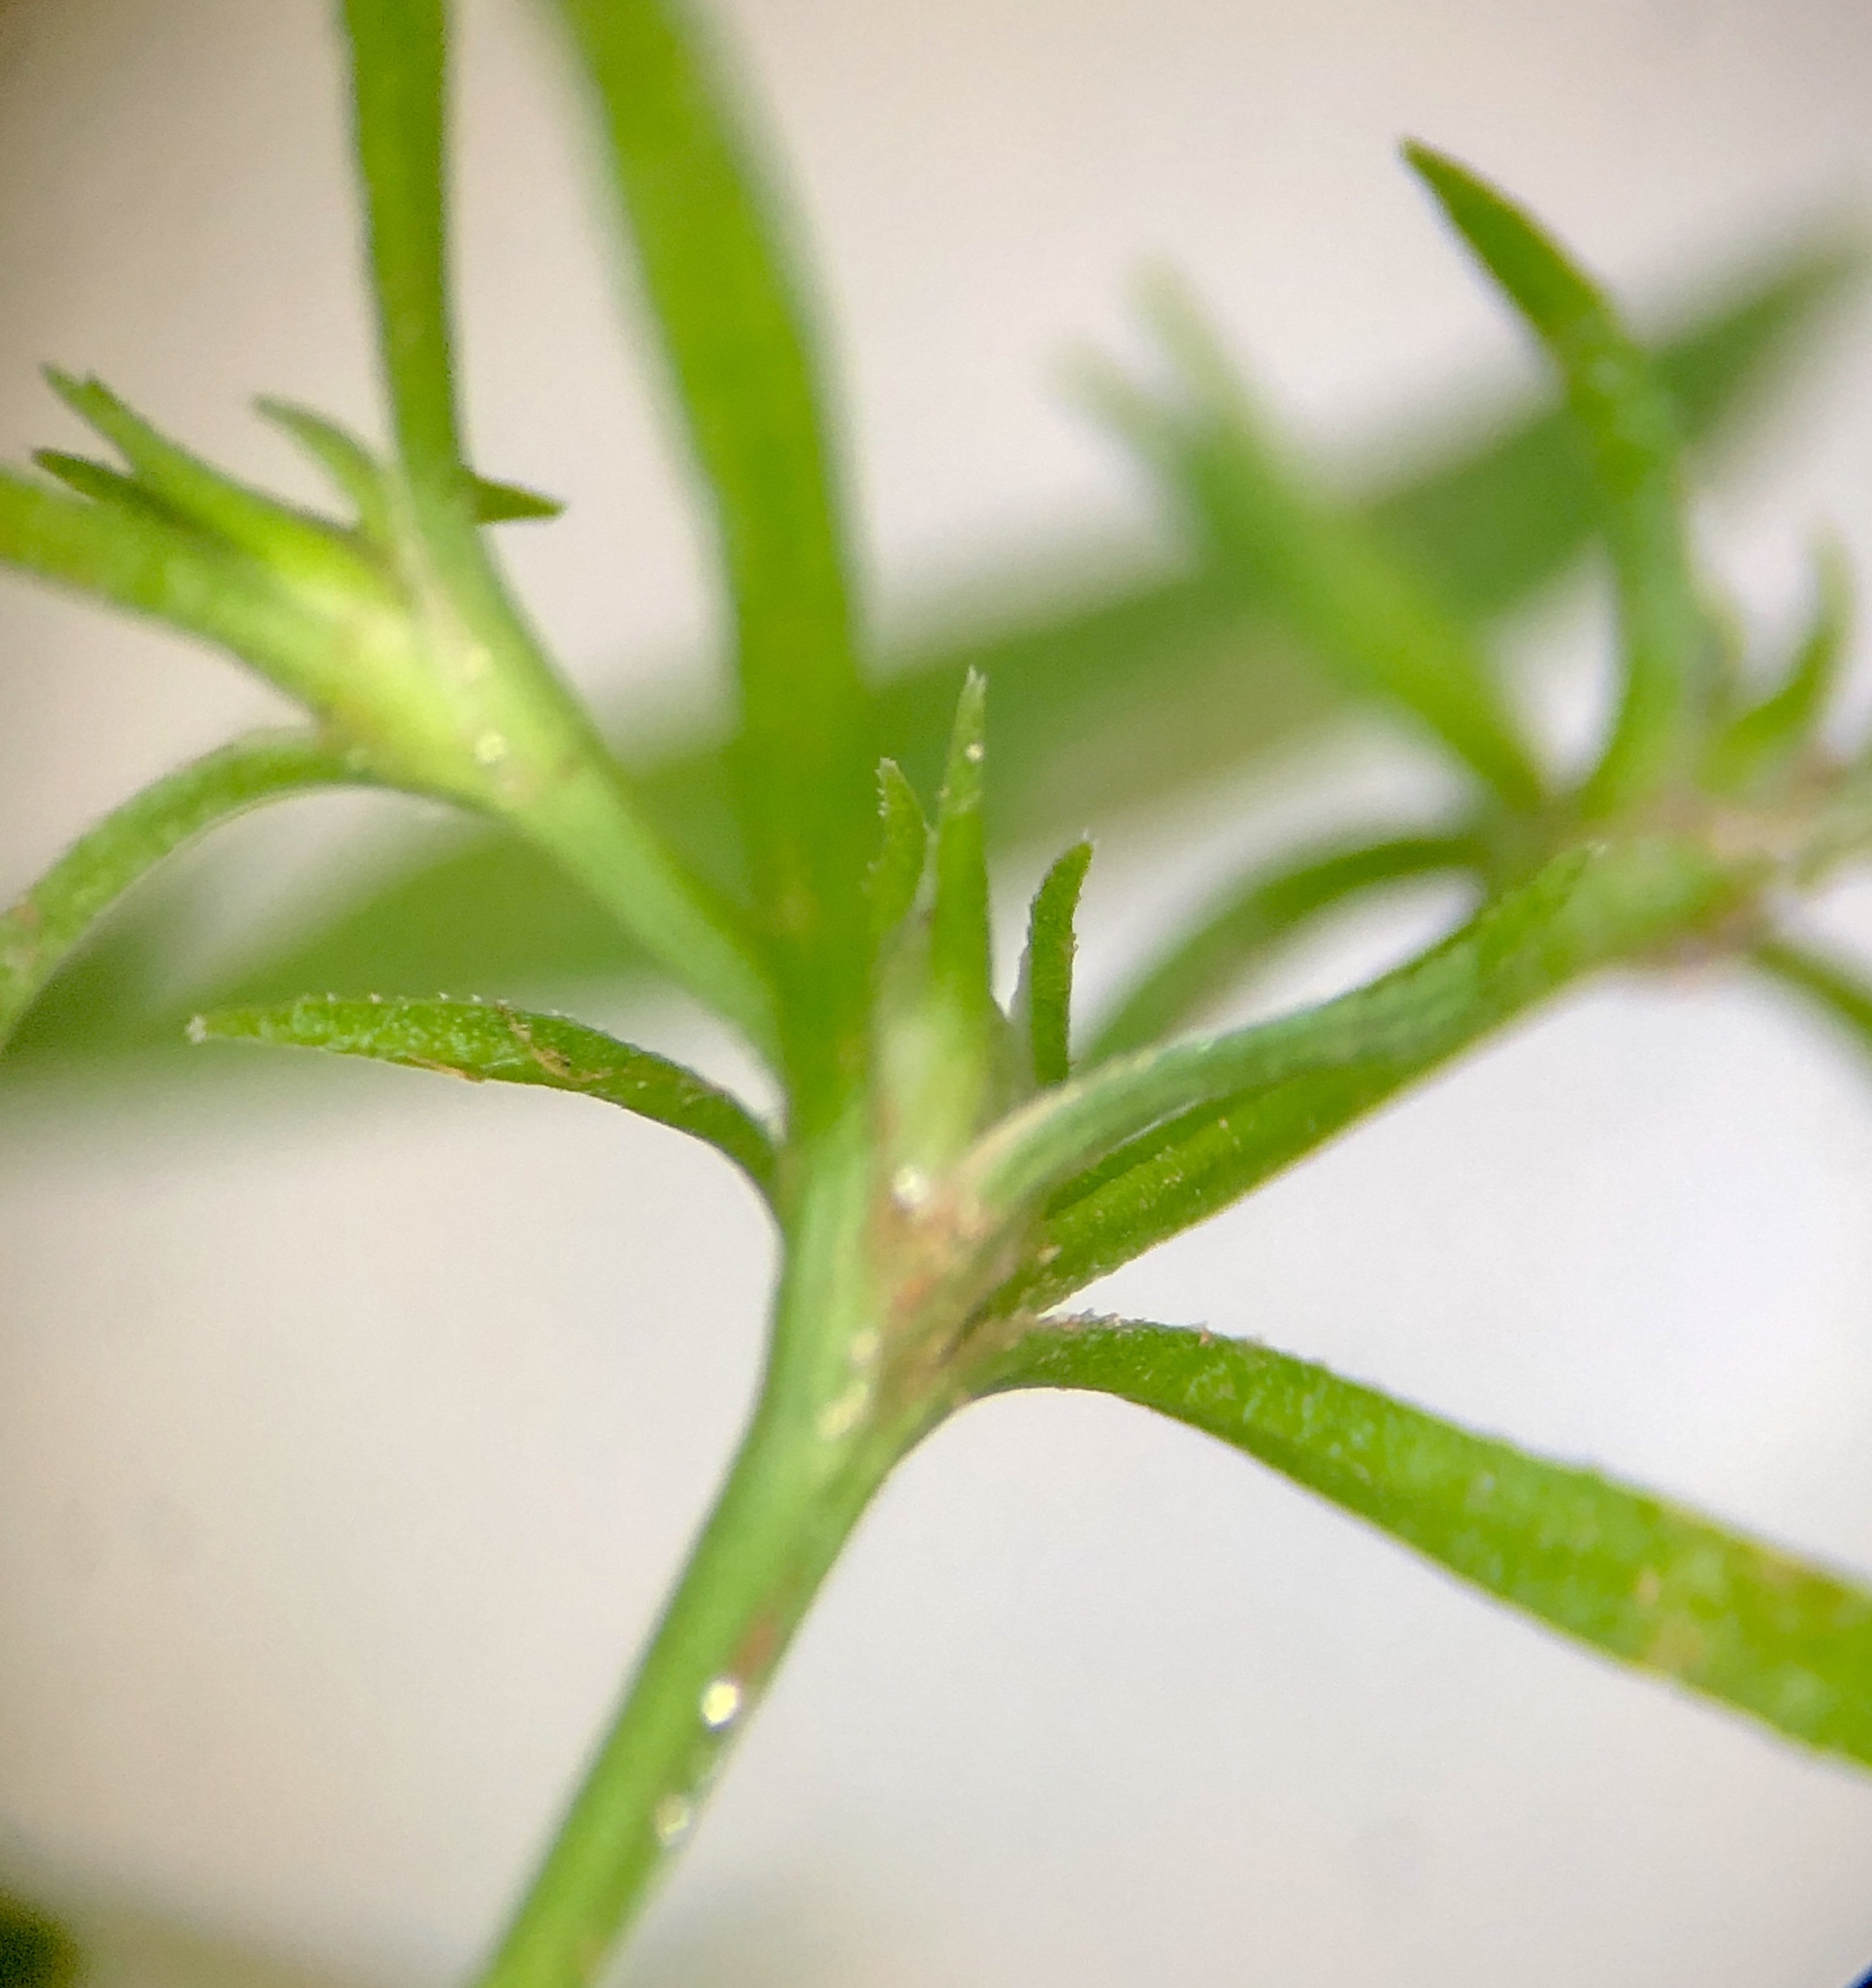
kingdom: Plantae
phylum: Tracheophyta
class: Magnoliopsida
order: Lamiales
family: Tetrachondraceae
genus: Polypremum
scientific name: Polypremum procumbens
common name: Juniper-leaf
